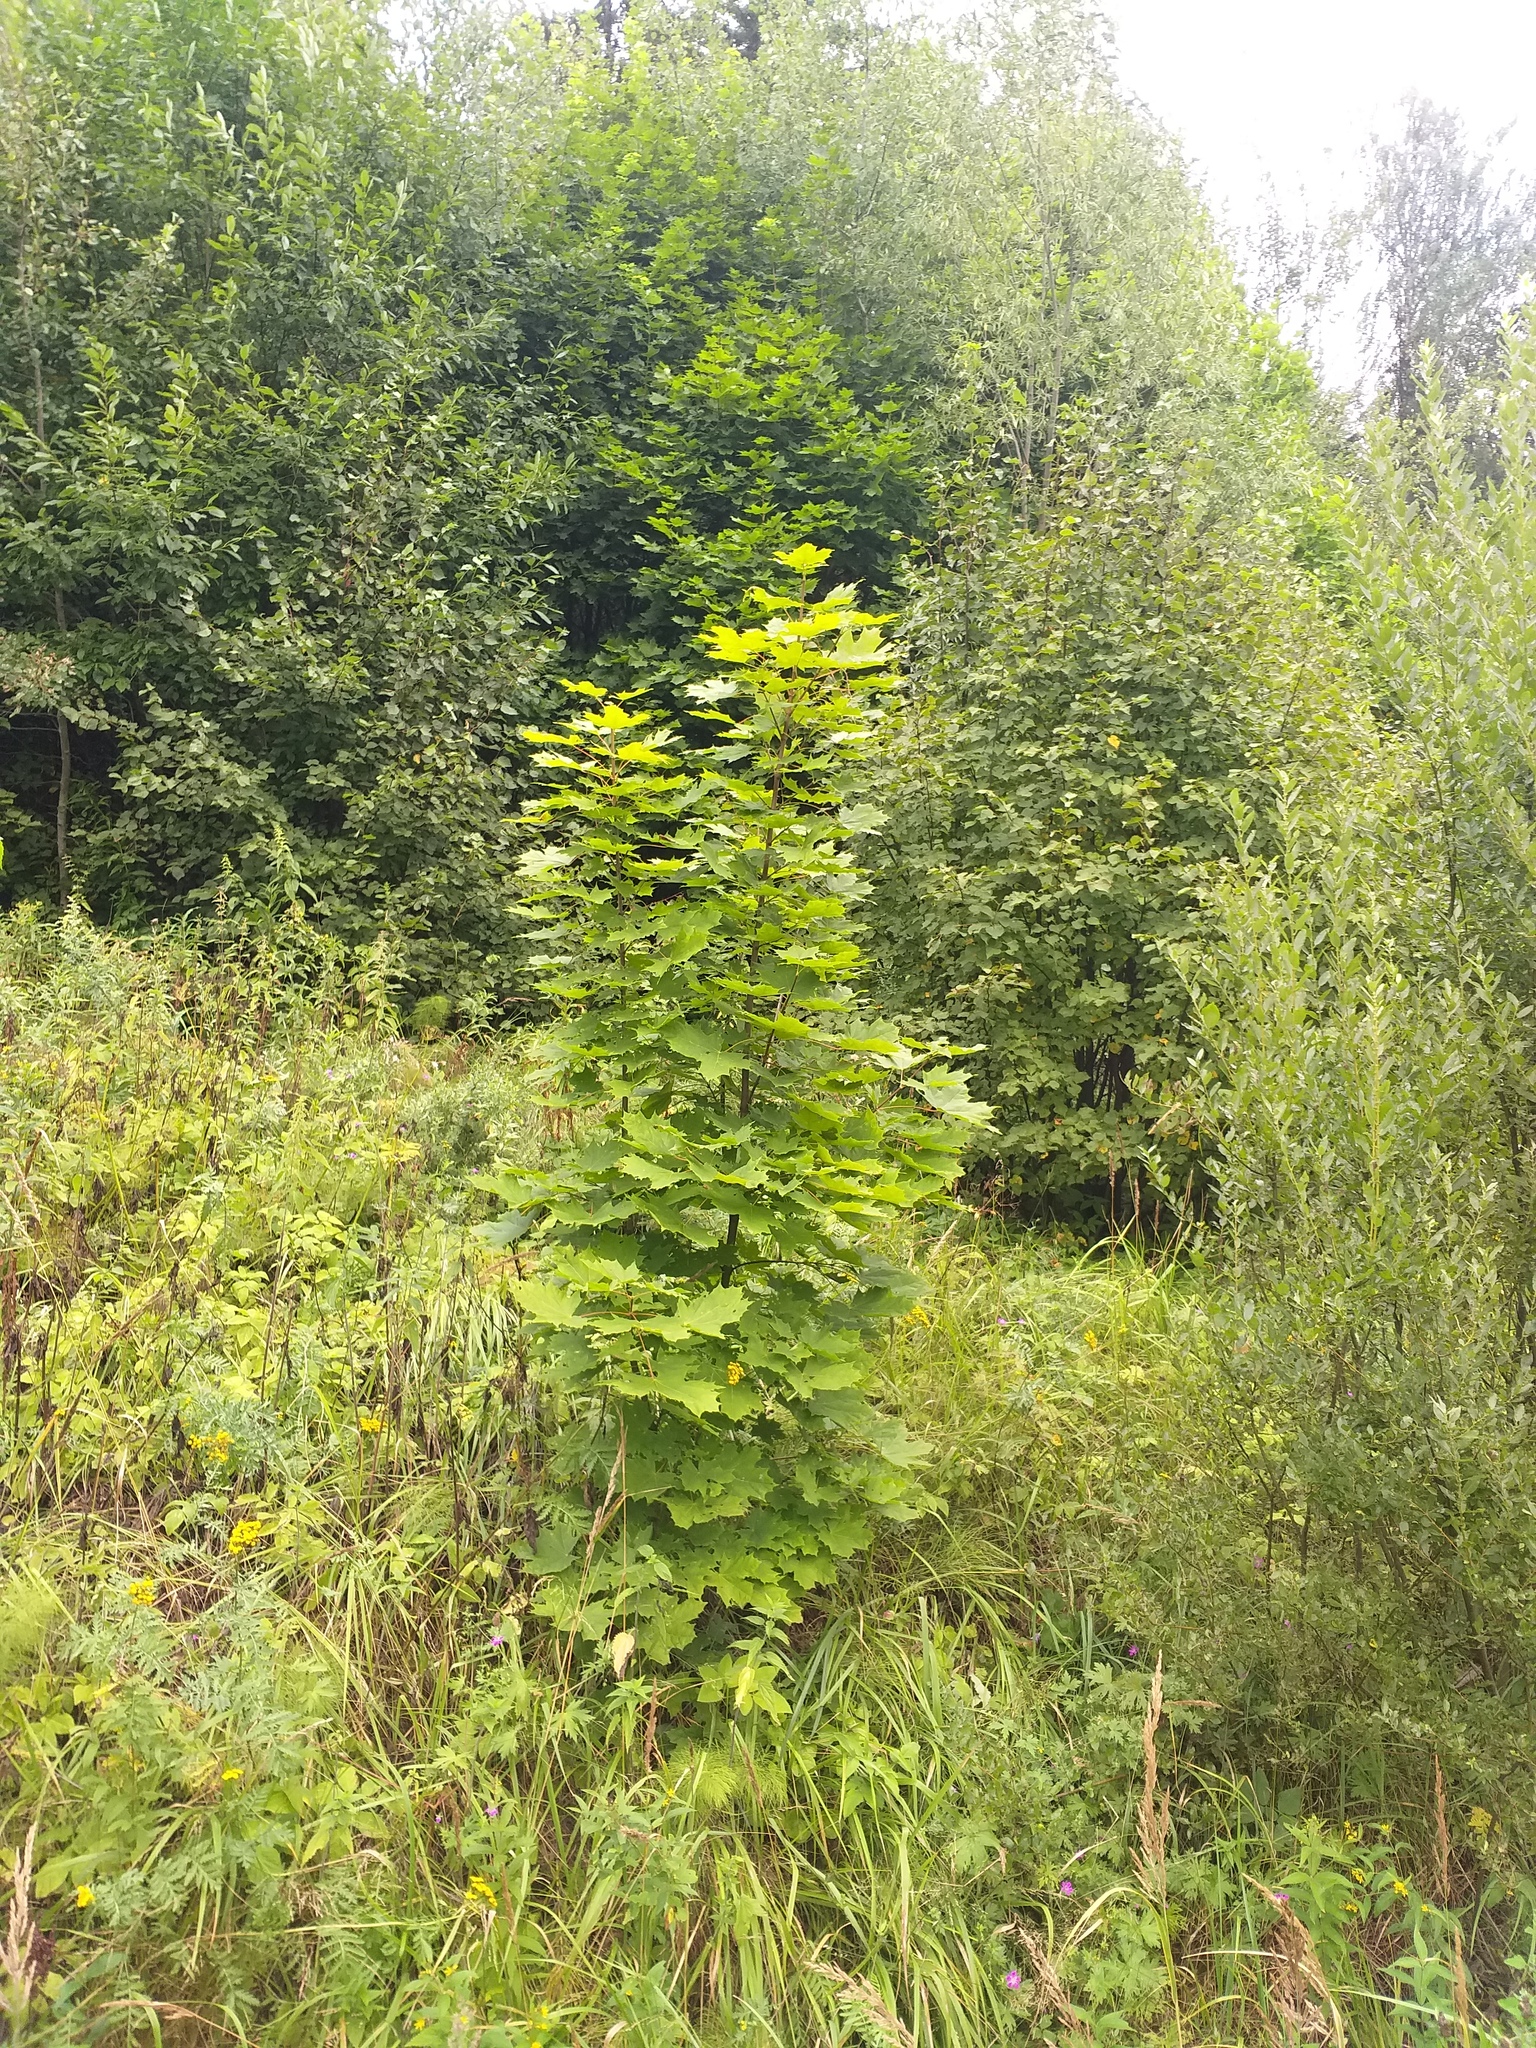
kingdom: Plantae
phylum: Tracheophyta
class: Magnoliopsida
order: Sapindales
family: Sapindaceae
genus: Acer
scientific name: Acer platanoides
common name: Norway maple
